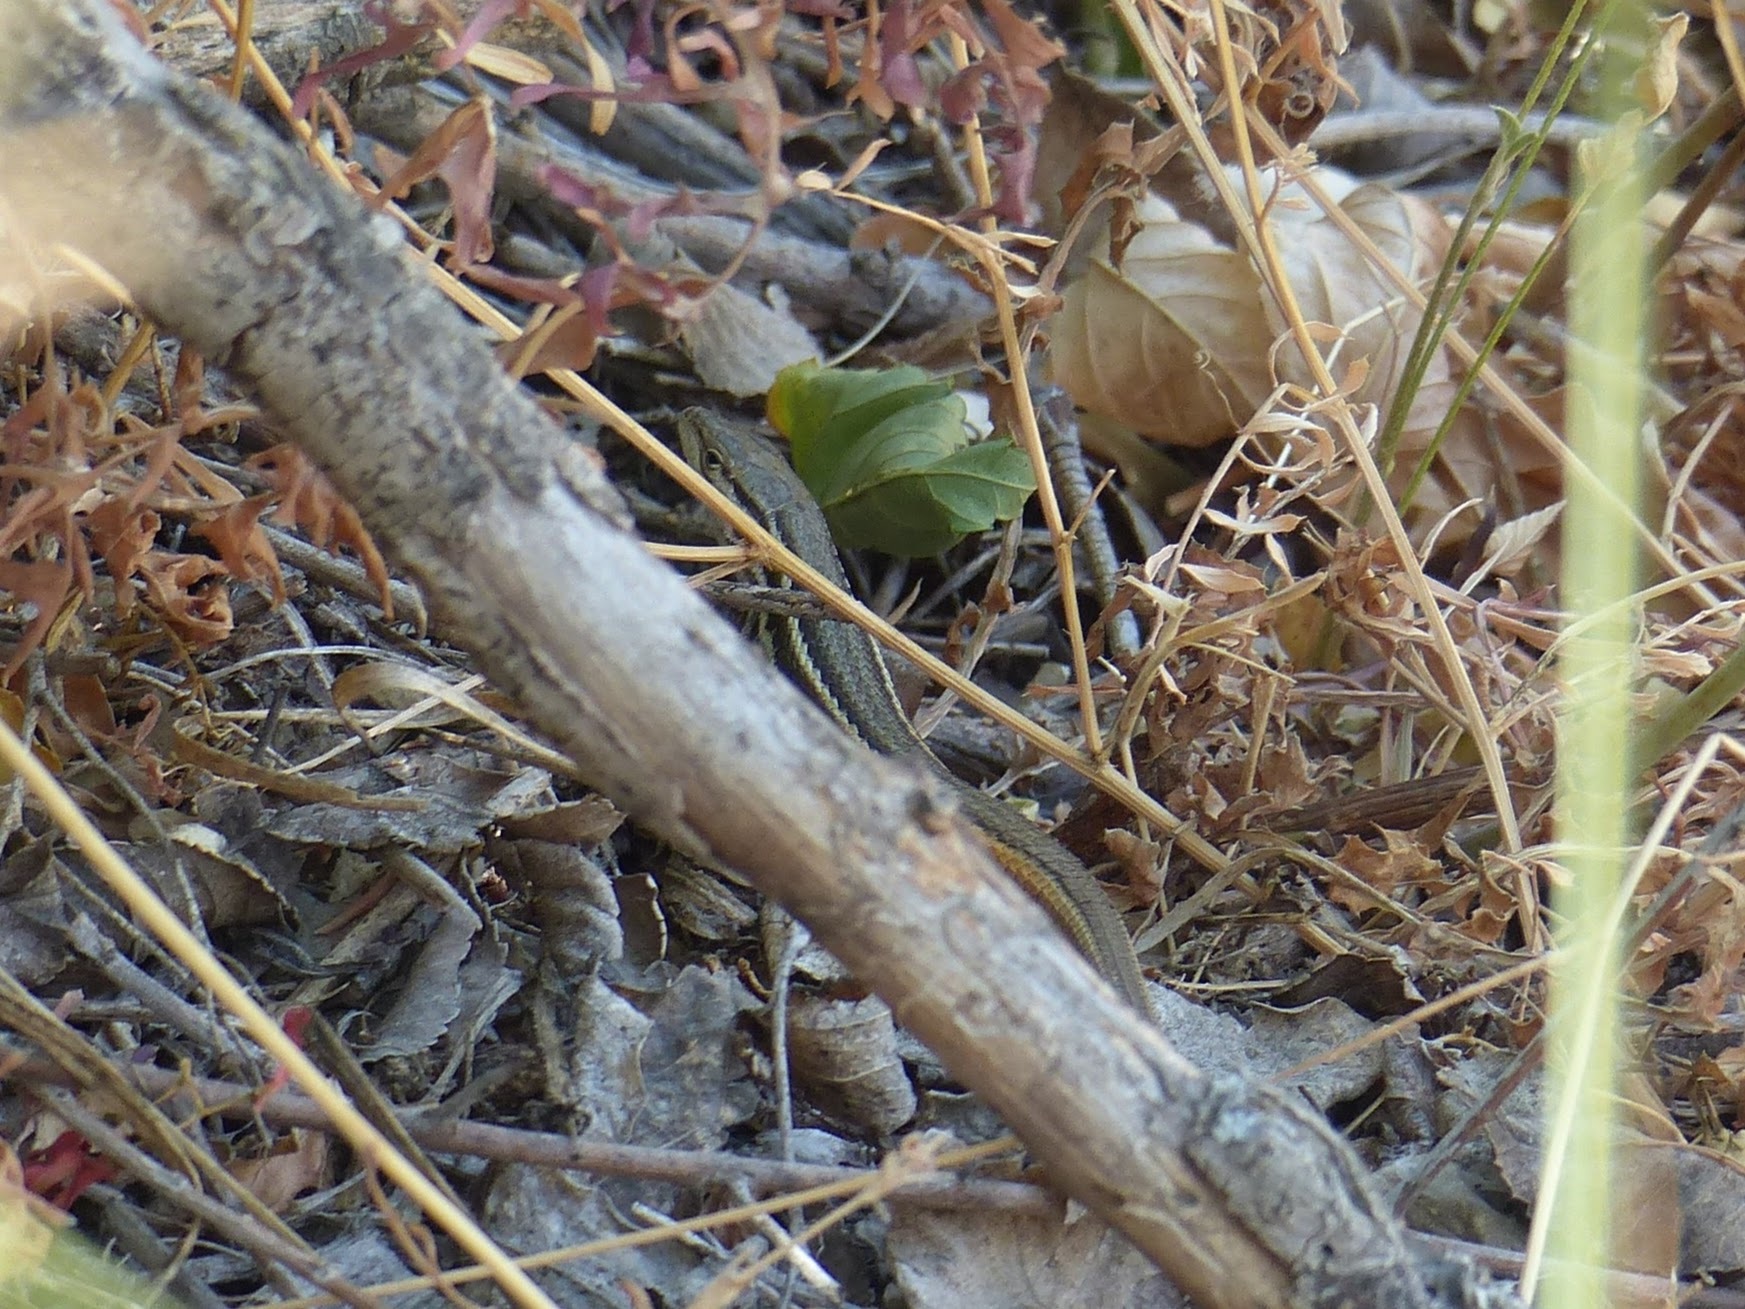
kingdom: Animalia
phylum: Chordata
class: Squamata
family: Lacertidae
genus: Psammodromus
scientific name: Psammodromus algirus
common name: Algerian psammodromus
